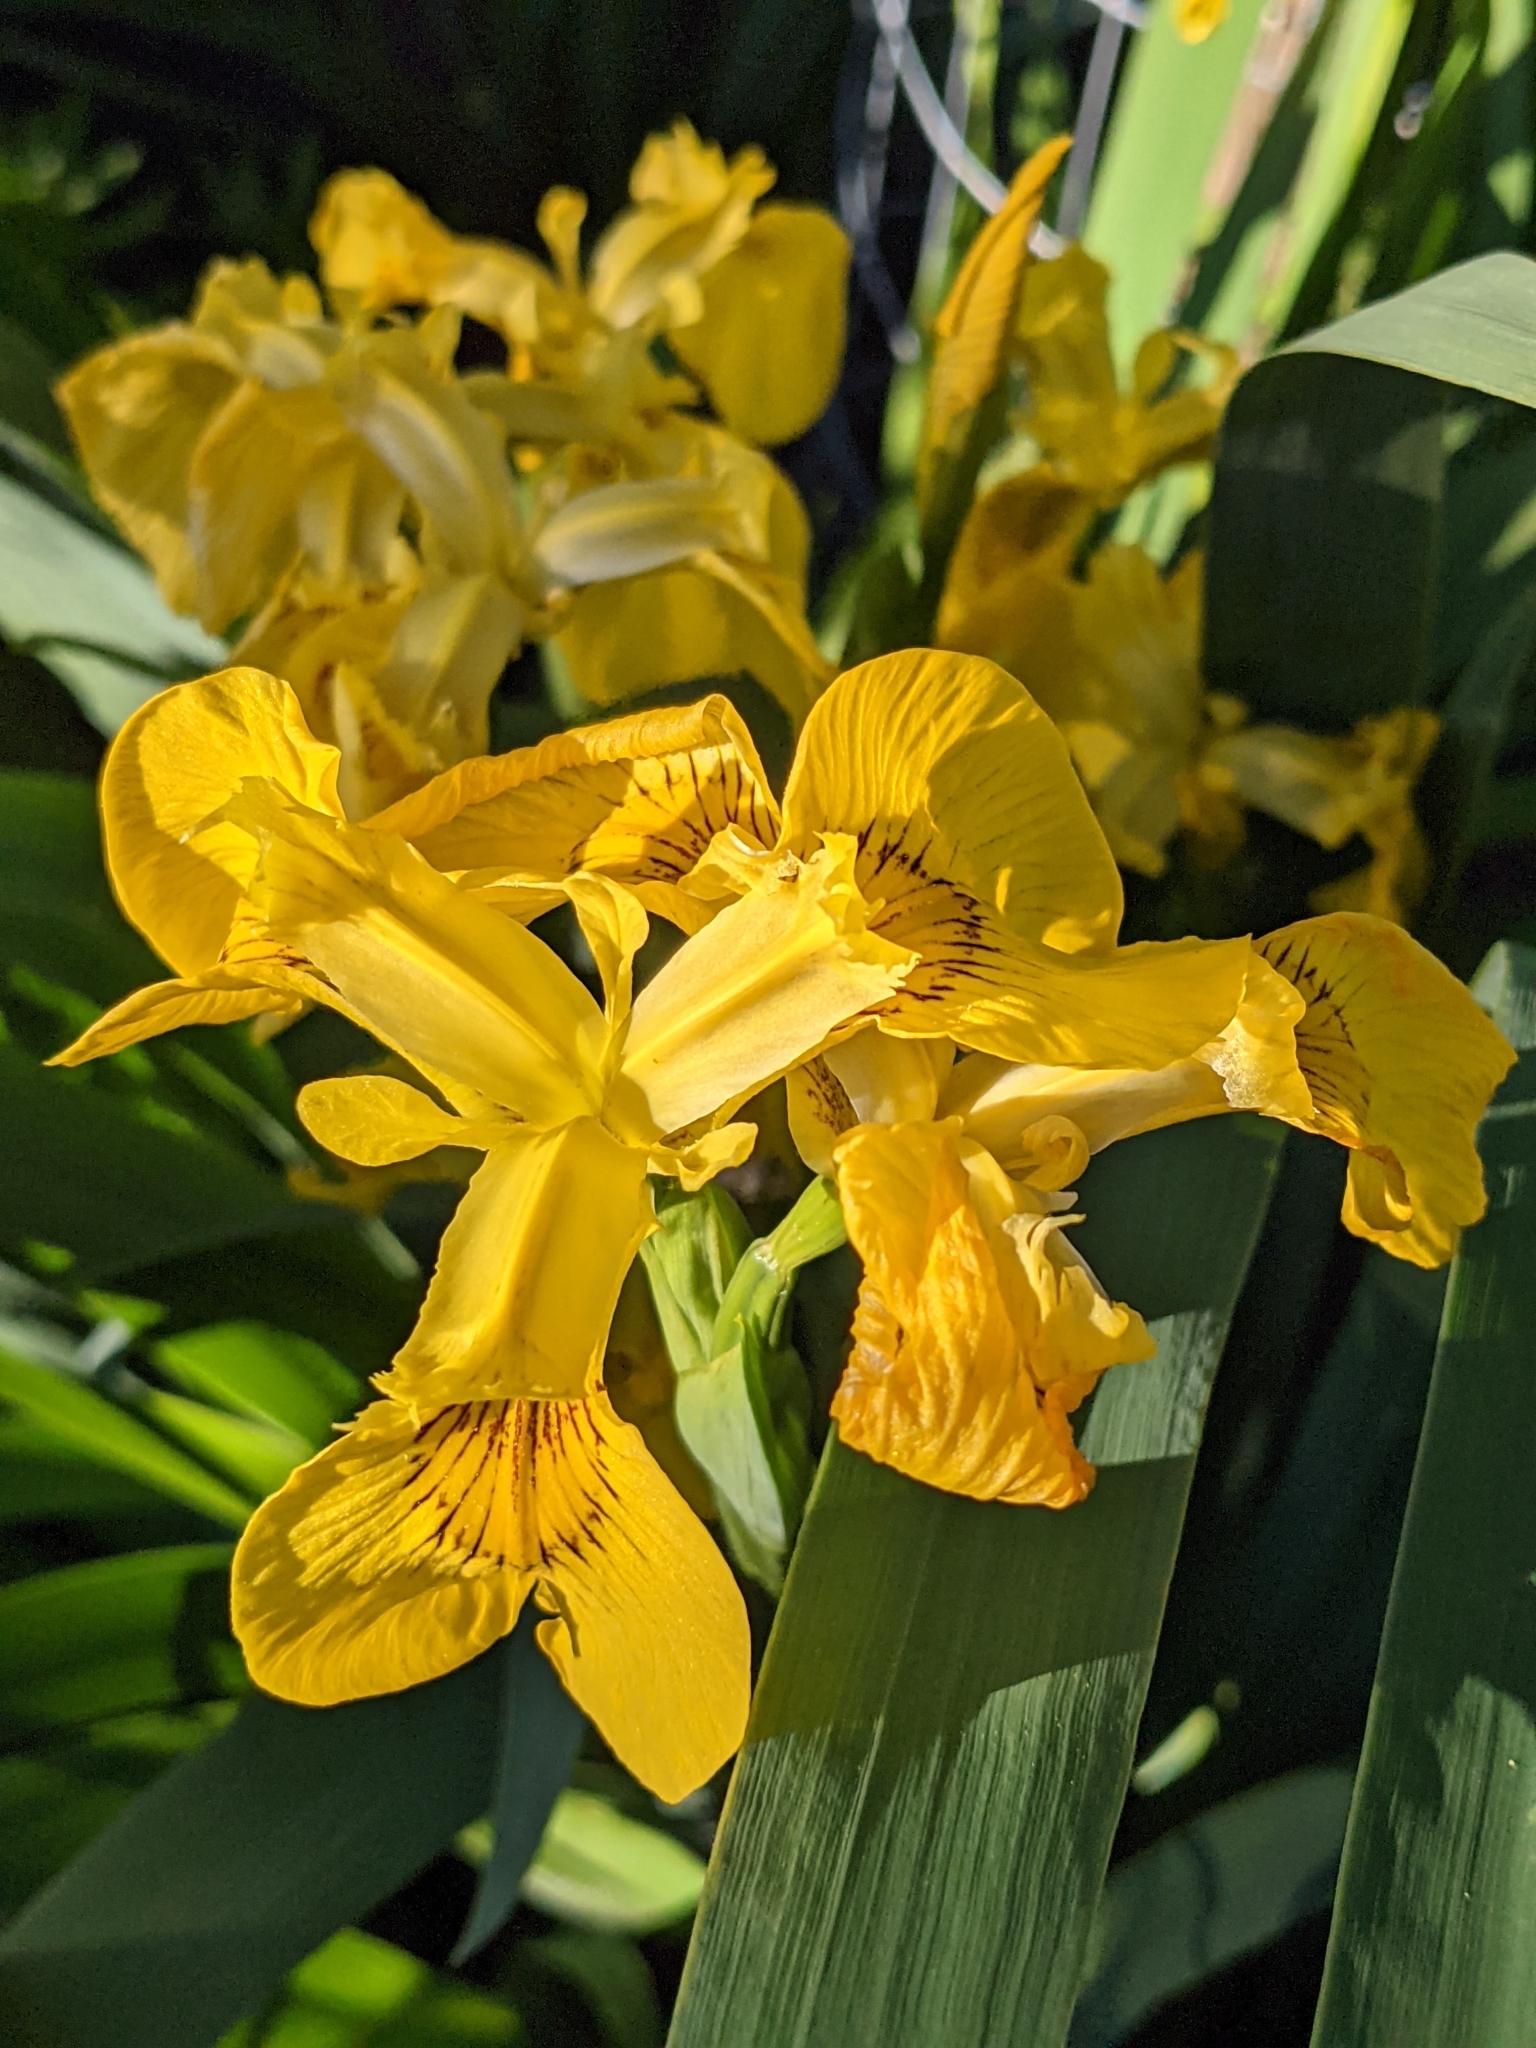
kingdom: Plantae
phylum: Tracheophyta
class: Liliopsida
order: Asparagales
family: Iridaceae
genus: Iris
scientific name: Iris pseudacorus
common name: Yellow flag
